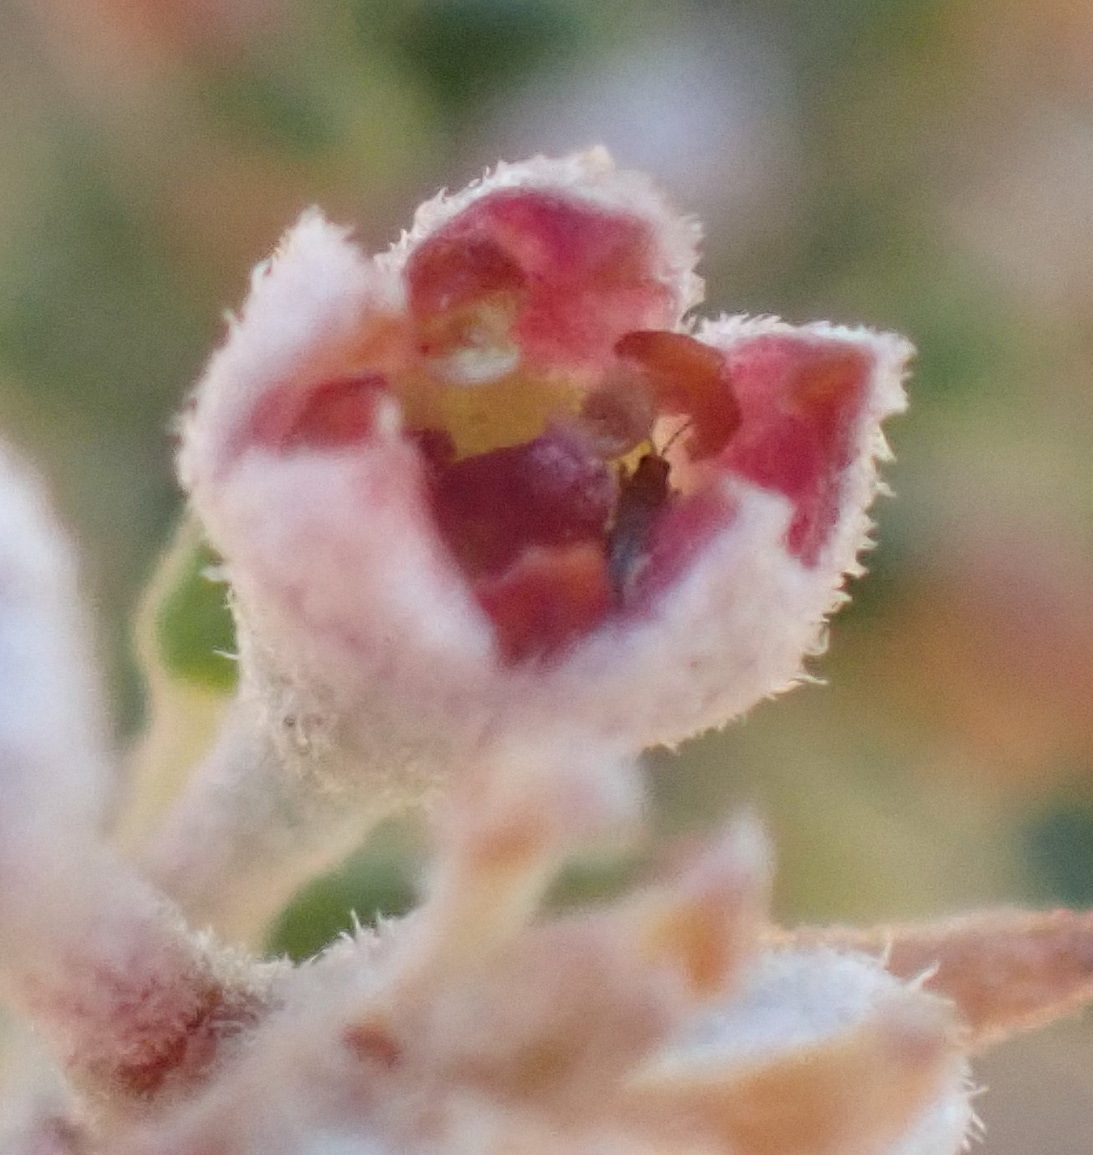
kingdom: Plantae
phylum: Tracheophyta
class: Magnoliopsida
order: Rosales
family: Rhamnaceae
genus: Phylica
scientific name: Phylica purpurea
